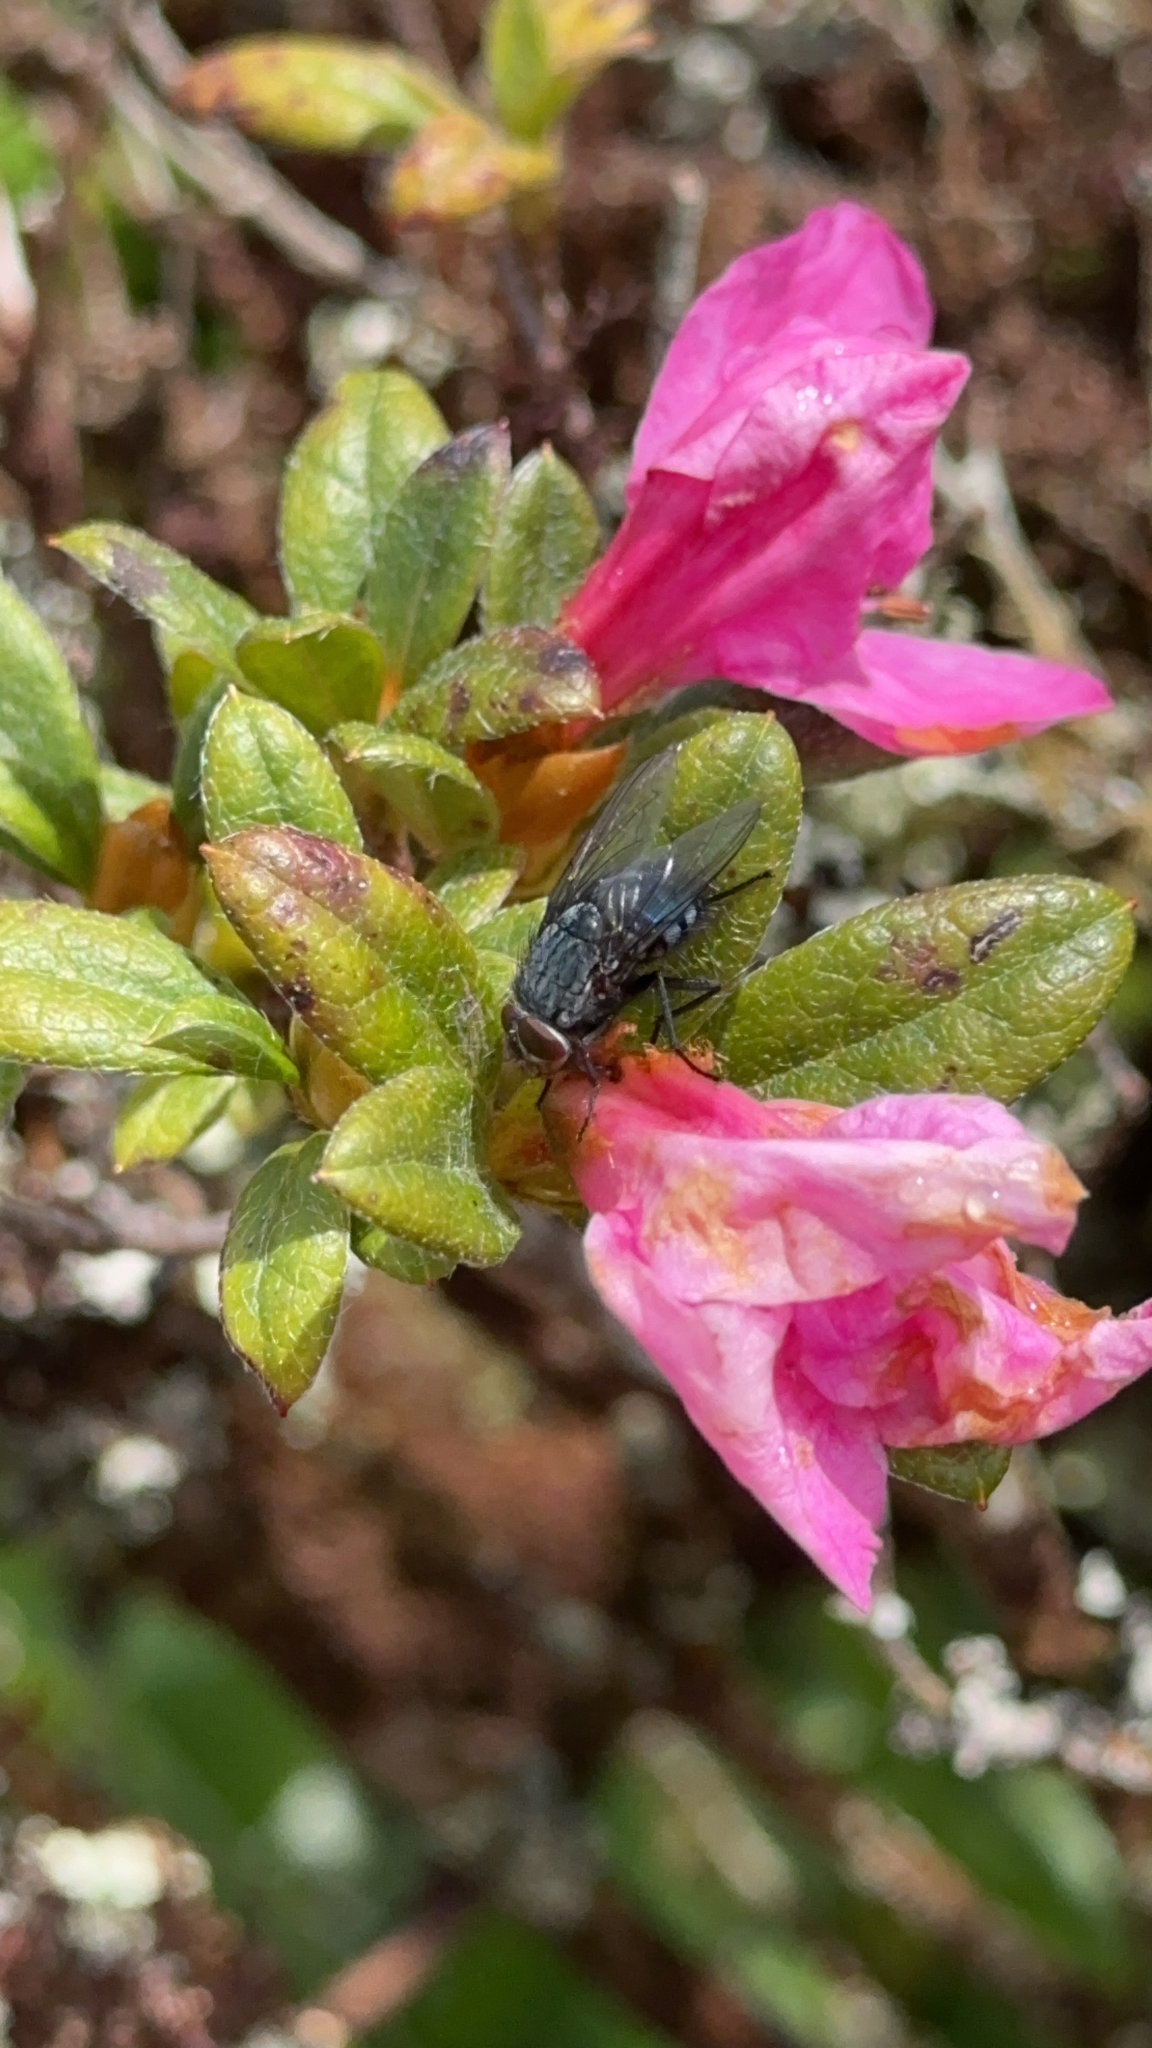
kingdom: Animalia
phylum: Arthropoda
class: Insecta
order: Diptera
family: Calliphoridae
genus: Calliphora
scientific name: Calliphora vicina
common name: Common blow flie
